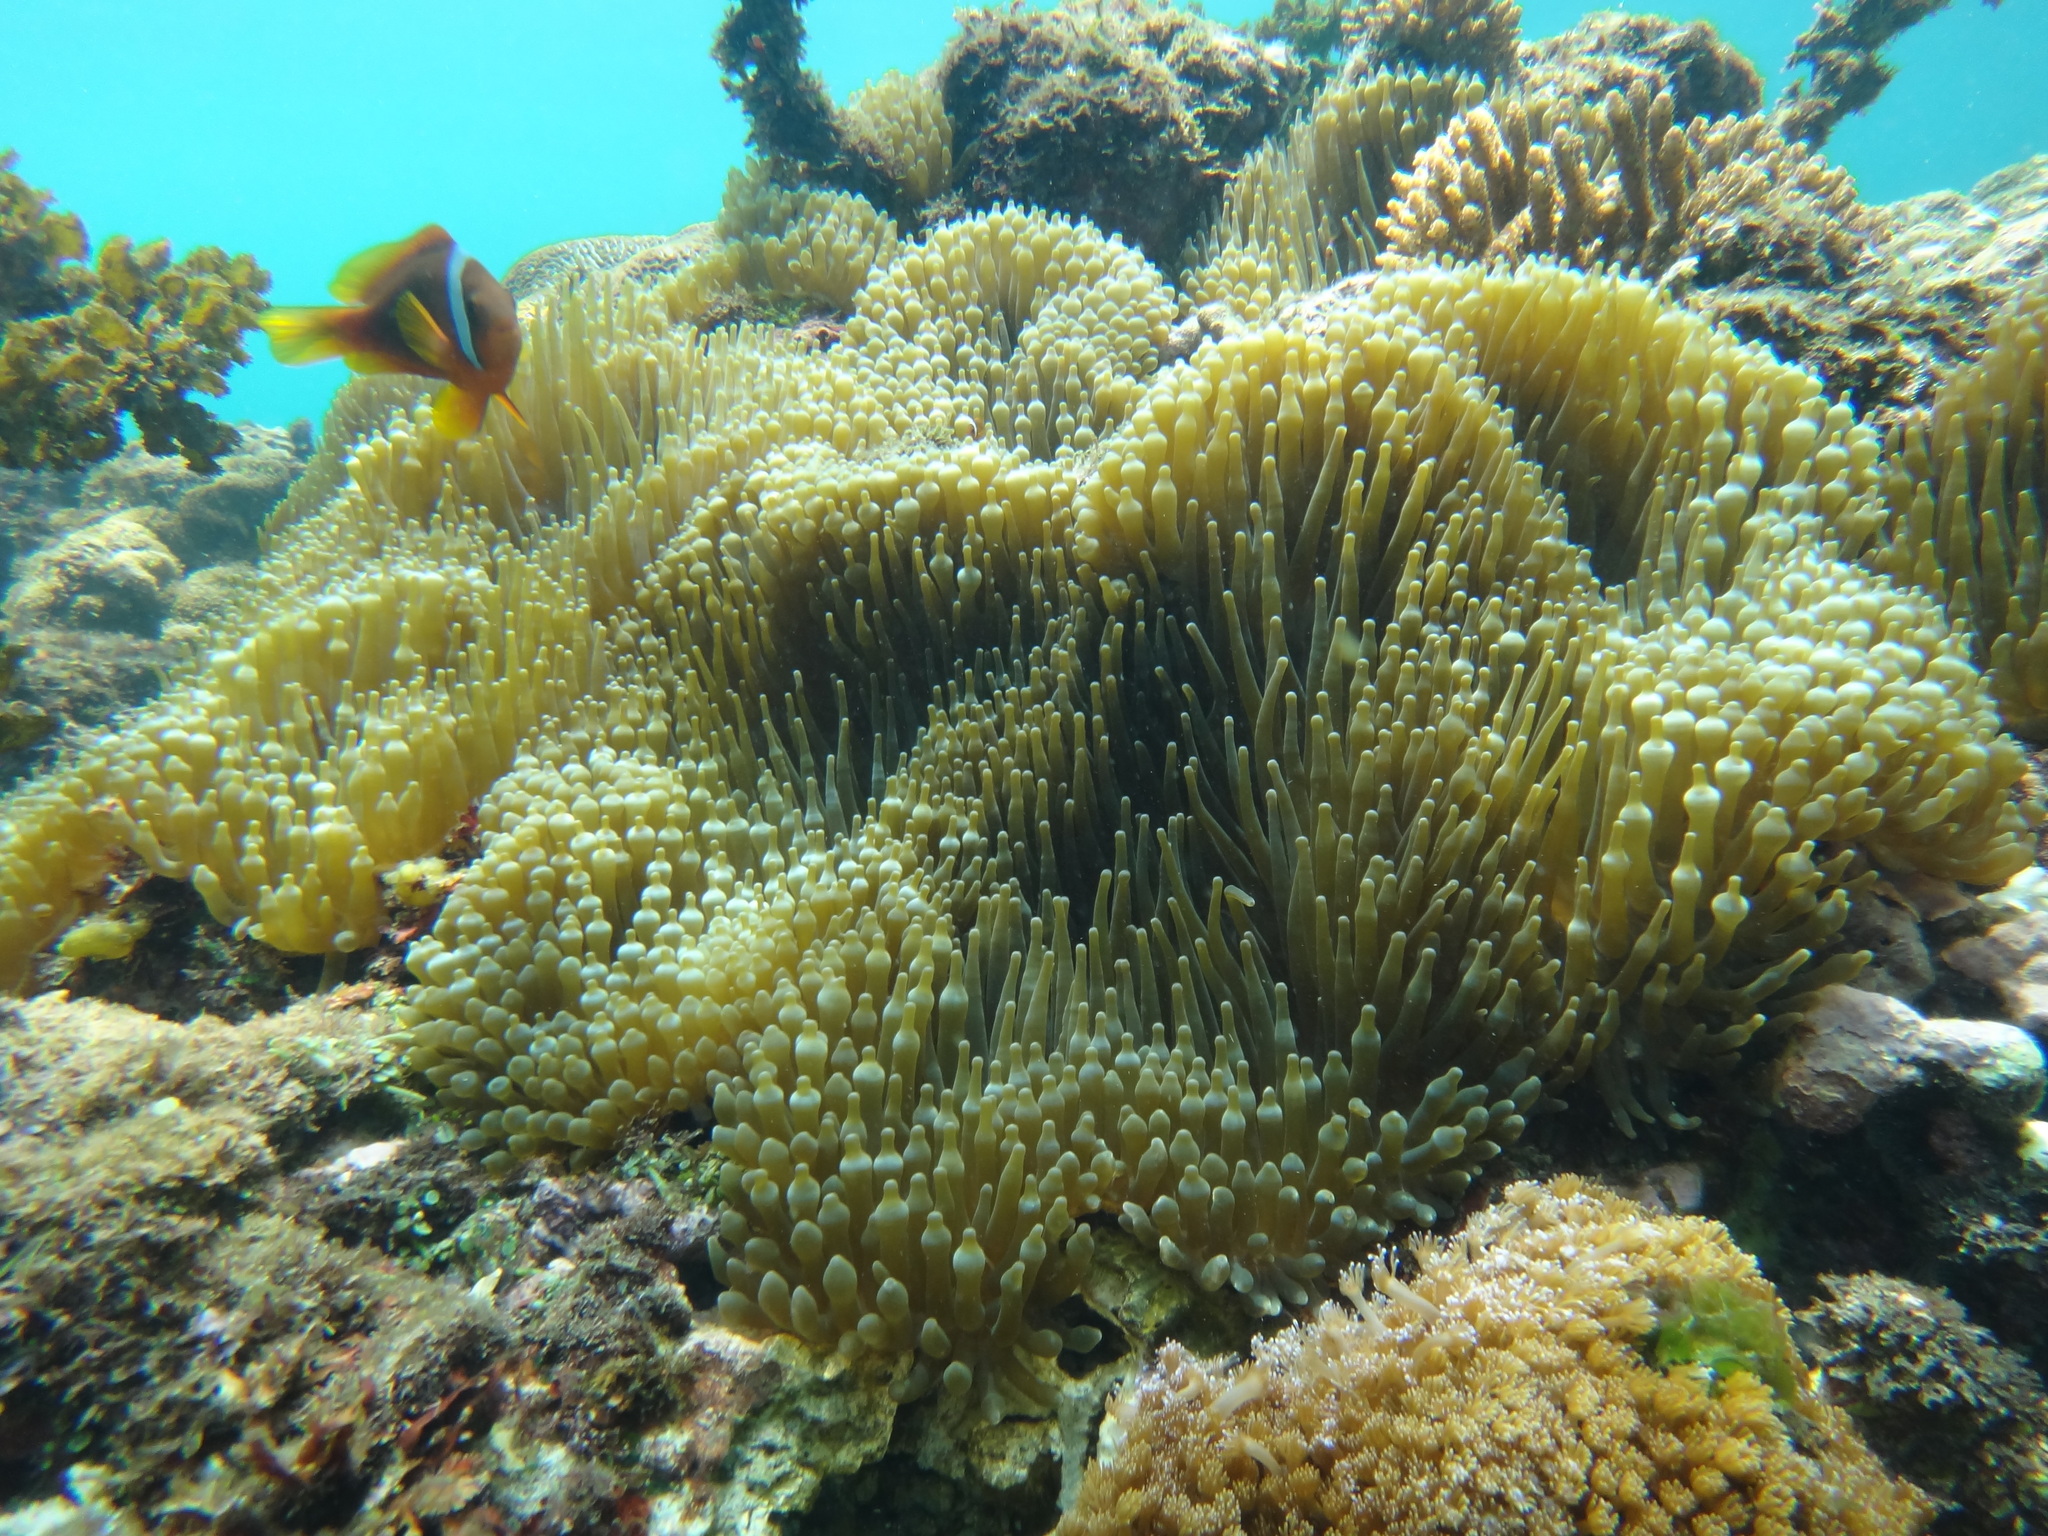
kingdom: Animalia
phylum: Chordata
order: Perciformes
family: Pomacentridae
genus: Amphiprion
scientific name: Amphiprion frenatus
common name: Tomato anemonefish
